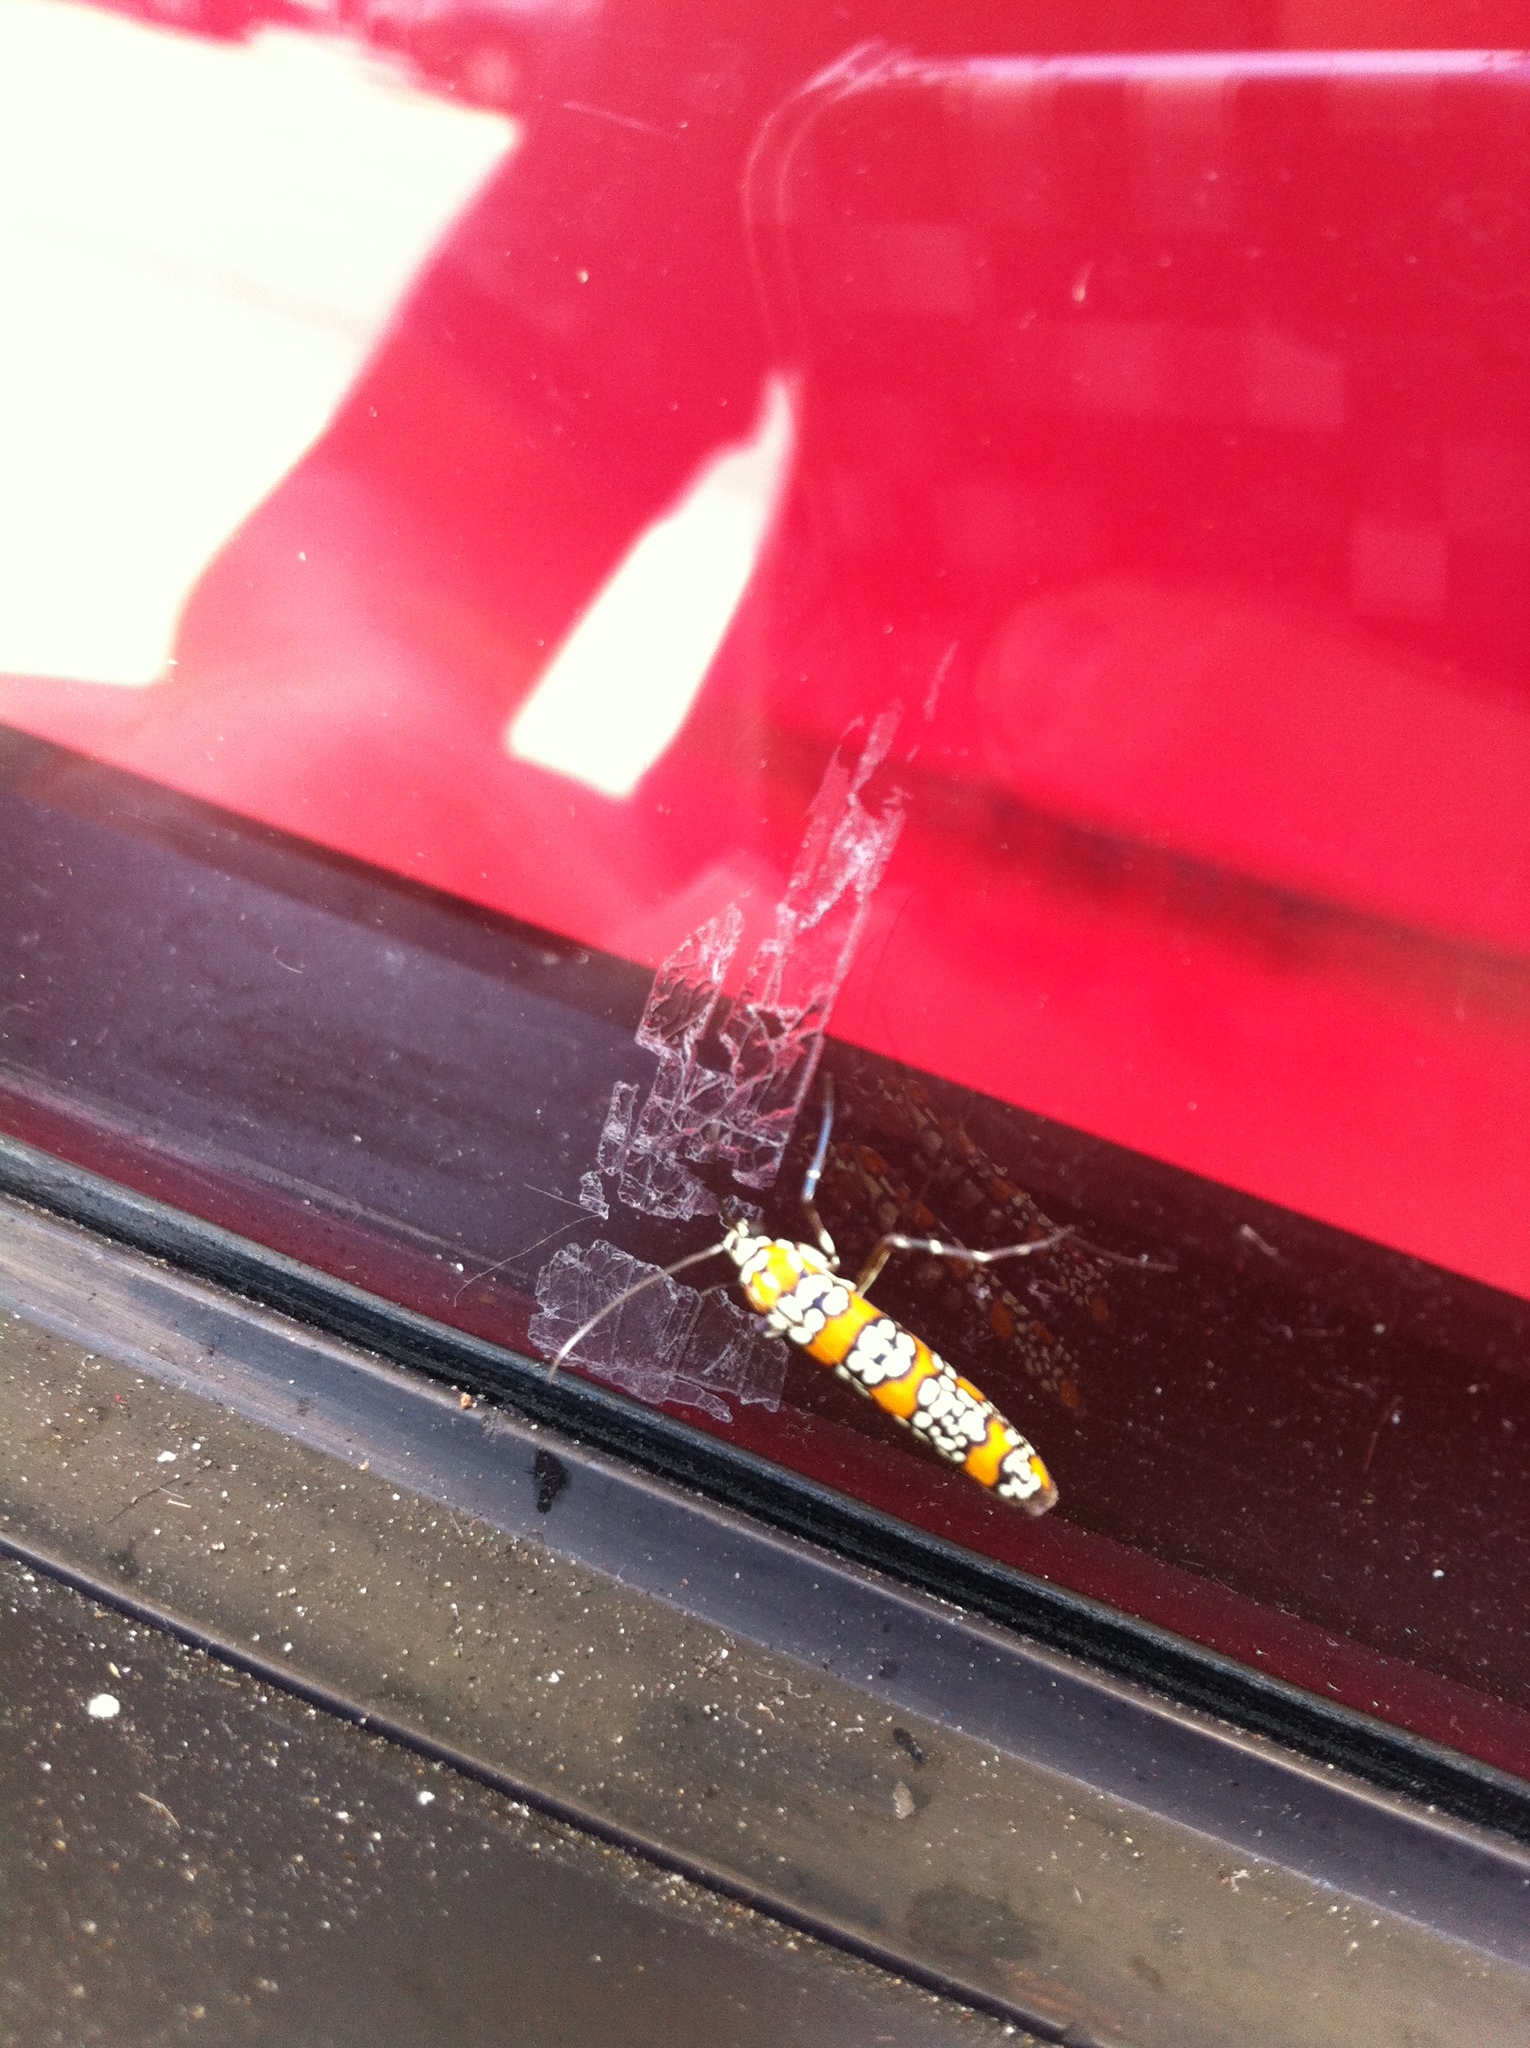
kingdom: Animalia
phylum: Arthropoda
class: Insecta
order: Lepidoptera
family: Attevidae
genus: Atteva
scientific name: Atteva punctella
